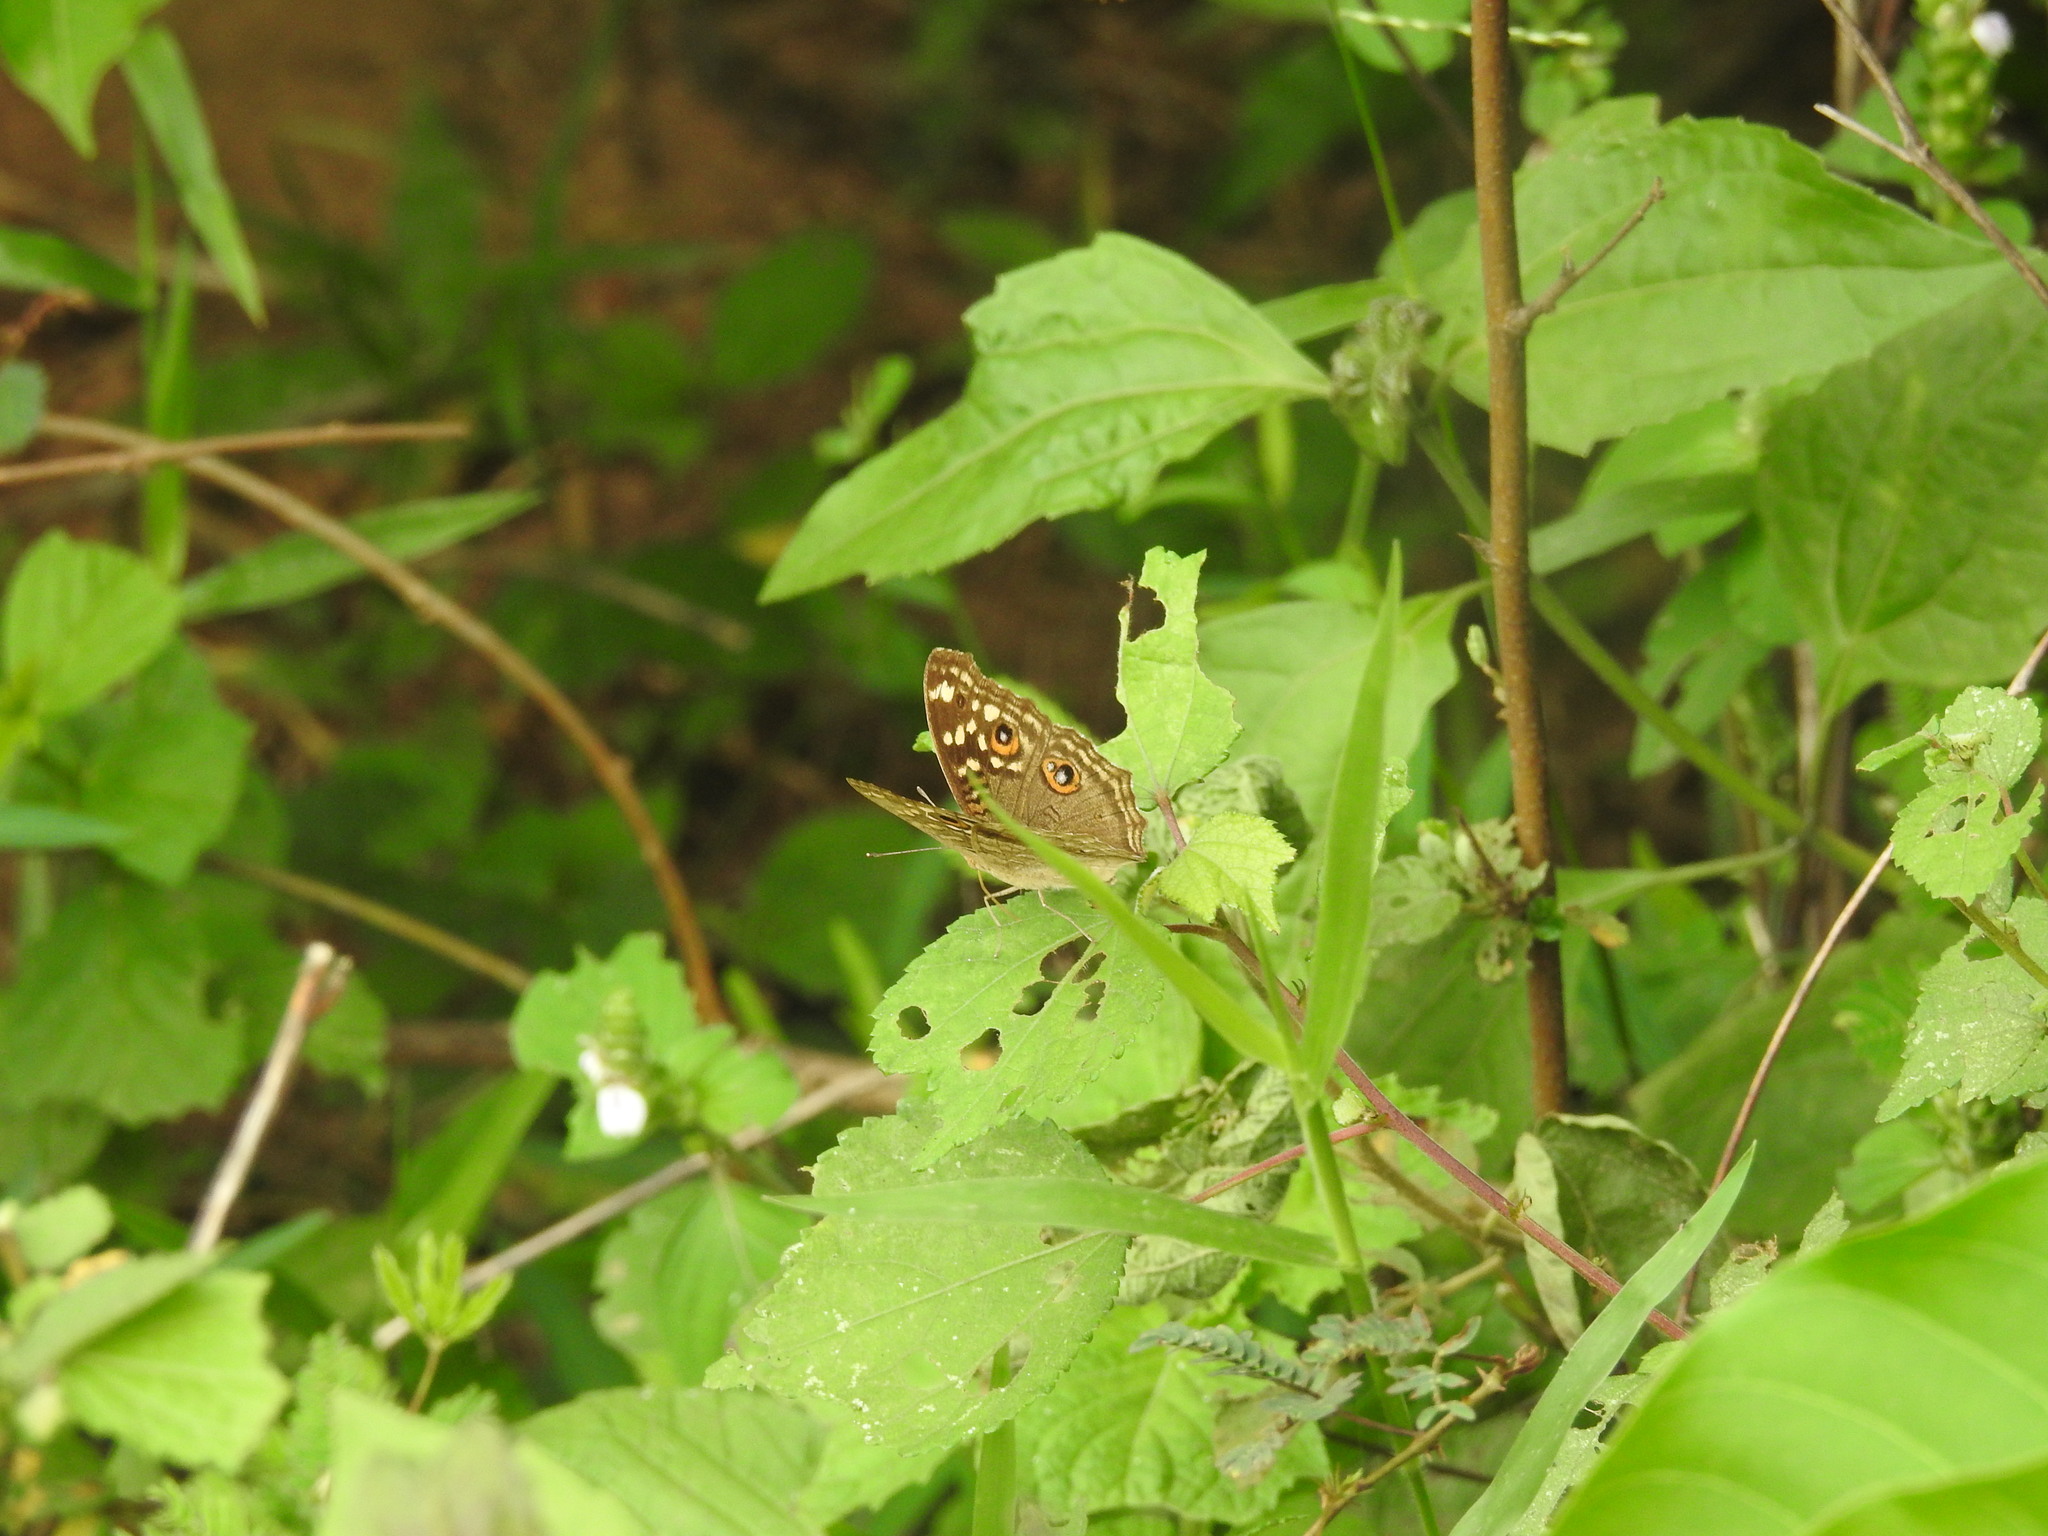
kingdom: Animalia
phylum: Arthropoda
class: Insecta
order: Lepidoptera
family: Nymphalidae
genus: Junonia
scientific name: Junonia lemonias
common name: Lemon pansy
